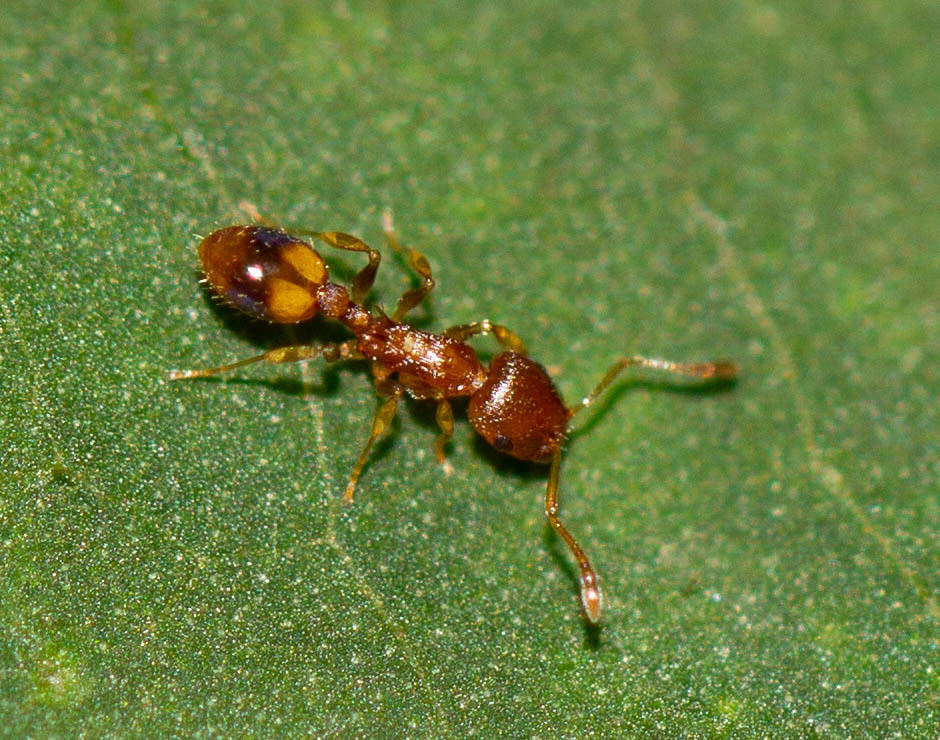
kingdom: Animalia
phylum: Arthropoda
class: Insecta
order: Hymenoptera
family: Formicidae
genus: Temnothorax
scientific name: Temnothorax curvispinosus
